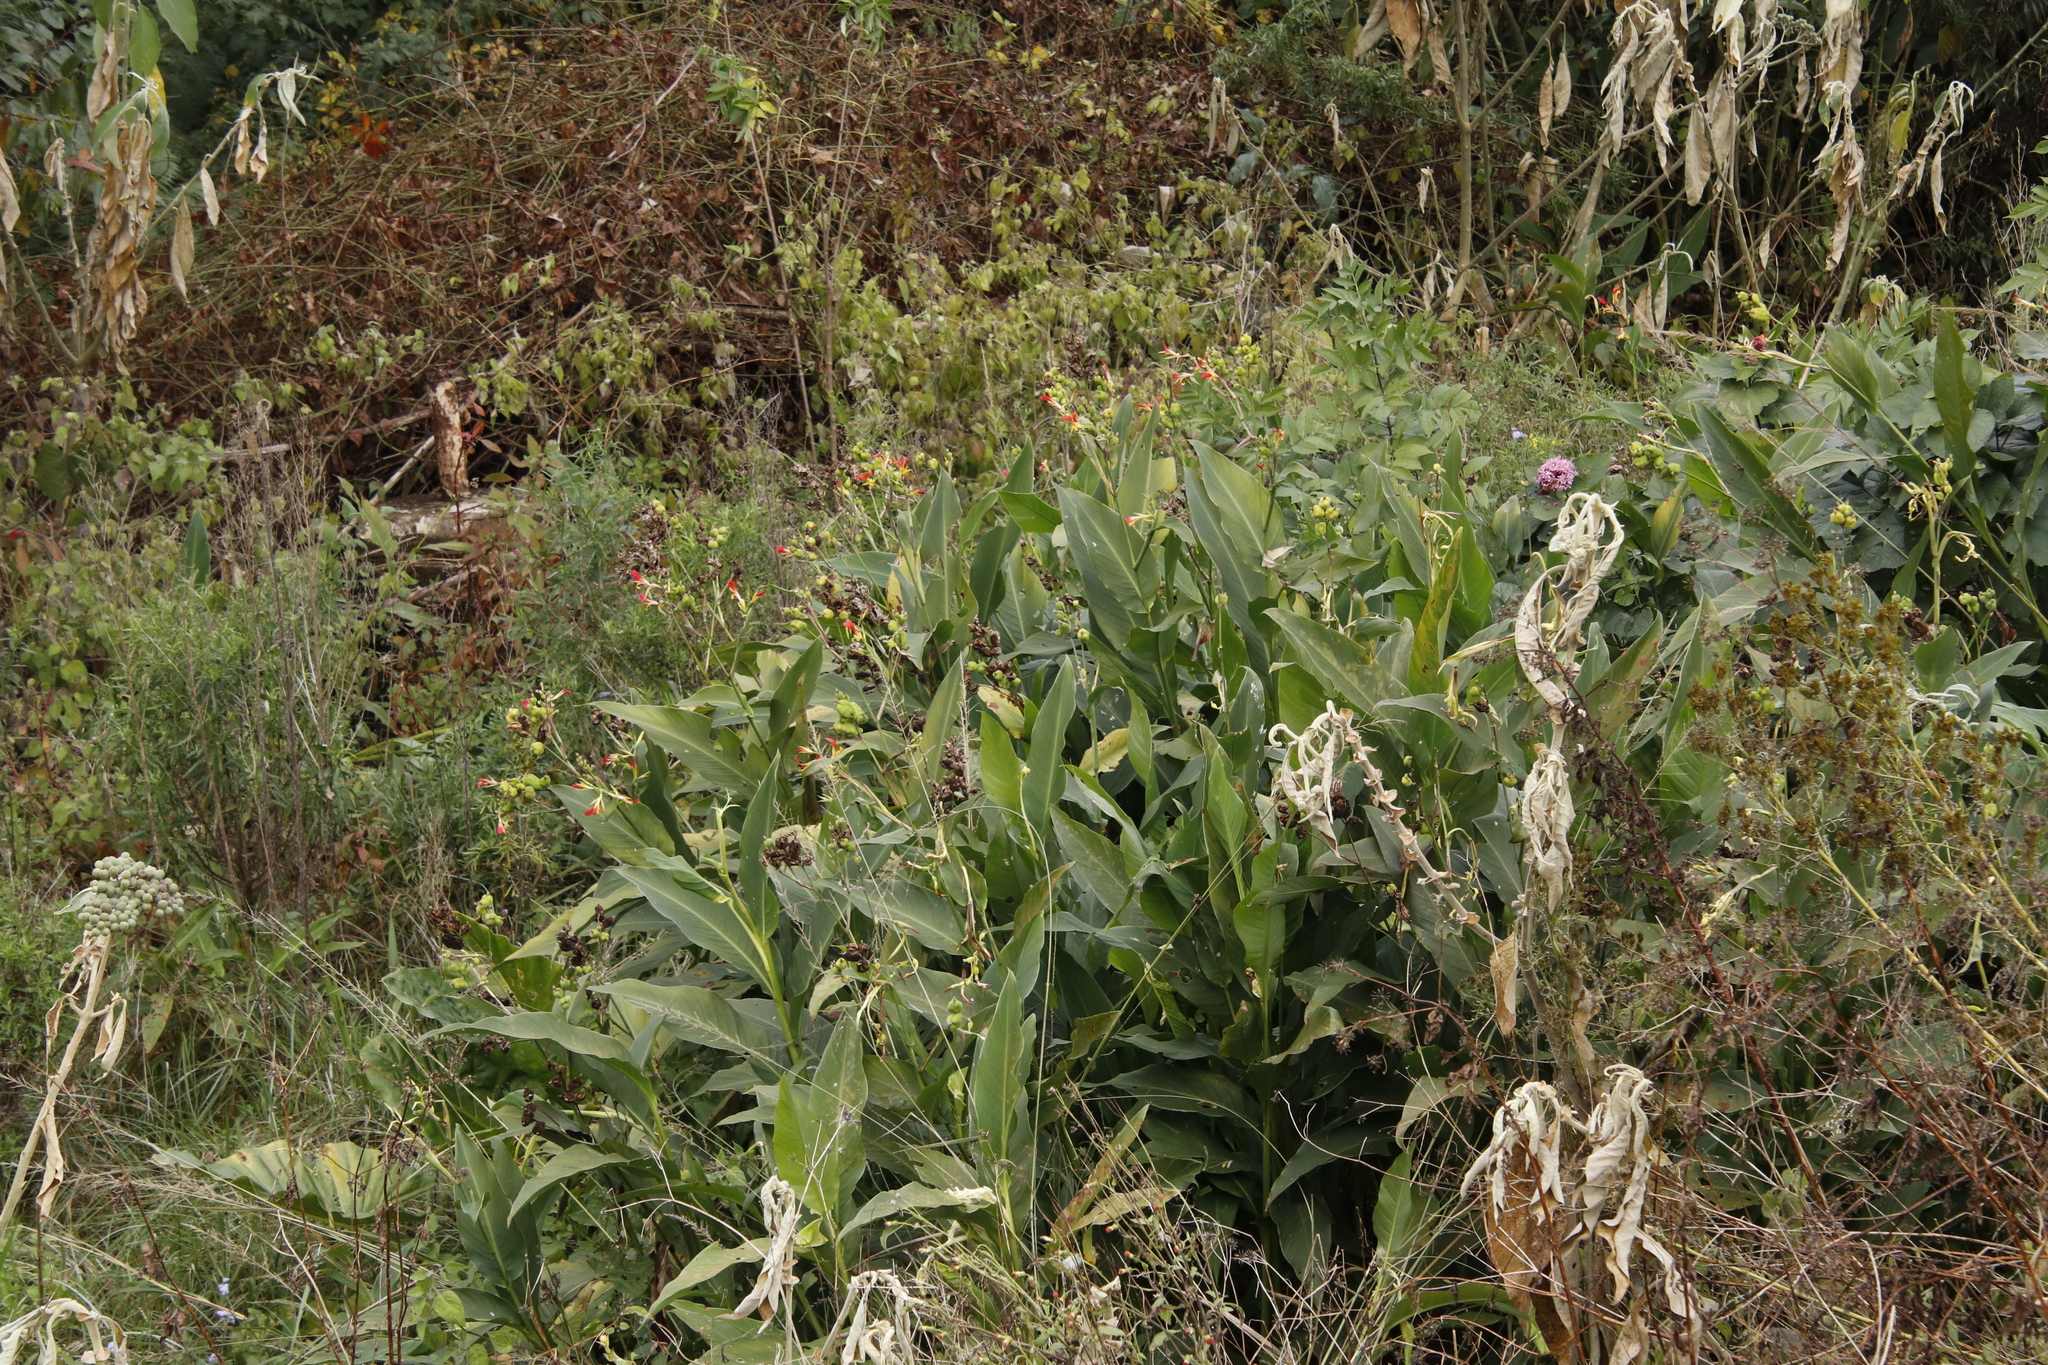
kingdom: Plantae
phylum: Tracheophyta
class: Liliopsida
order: Zingiberales
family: Cannaceae
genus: Canna
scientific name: Canna indica
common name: Indian shot
